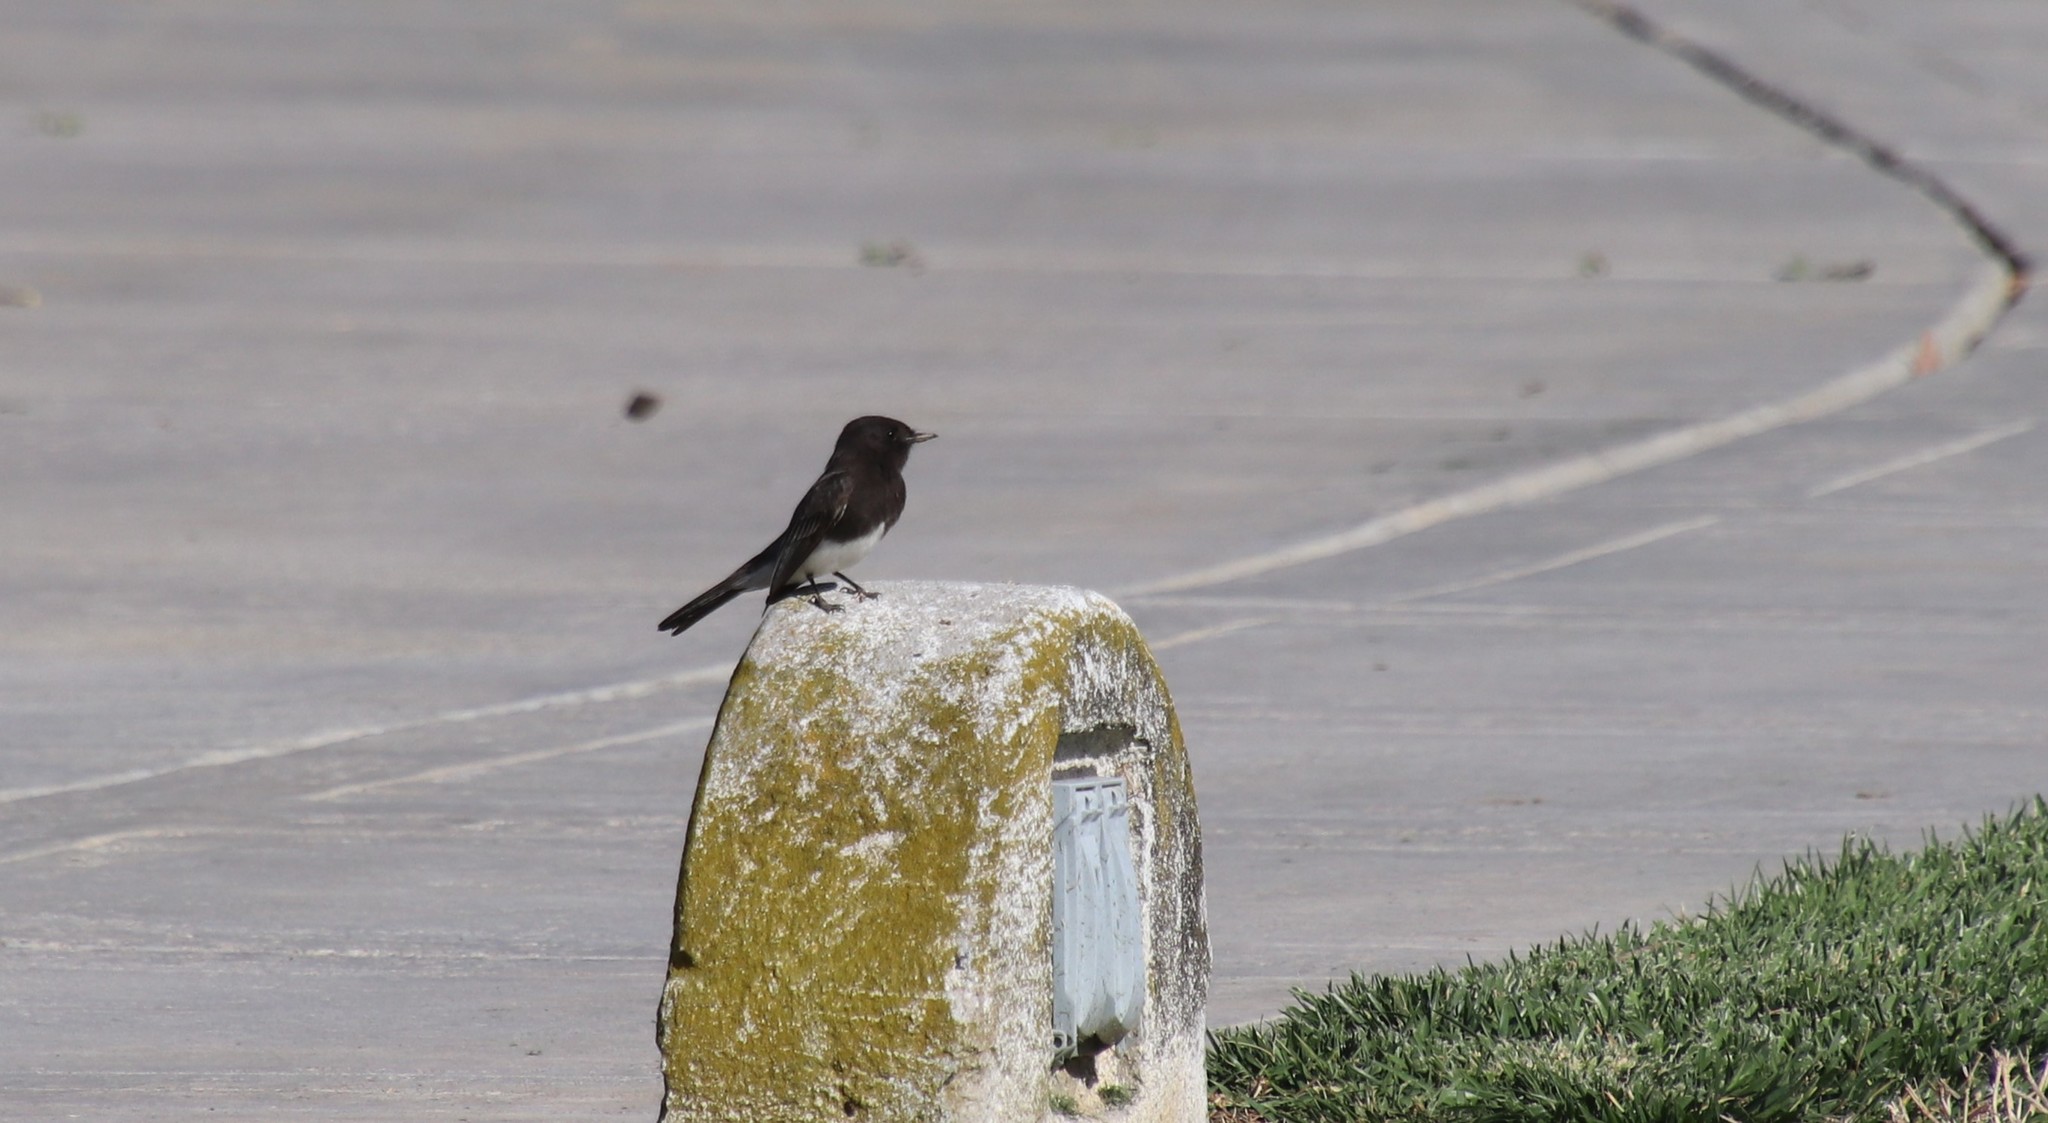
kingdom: Animalia
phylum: Chordata
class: Aves
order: Passeriformes
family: Tyrannidae
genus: Sayornis
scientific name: Sayornis nigricans
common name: Black phoebe
